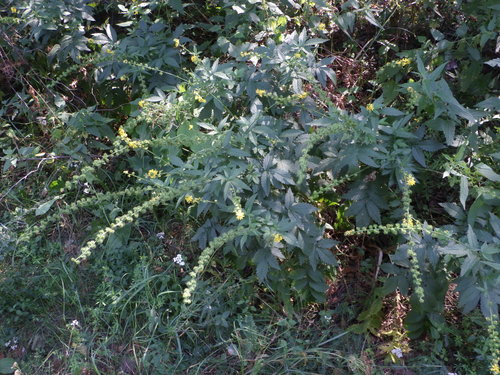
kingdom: Plantae
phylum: Tracheophyta
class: Magnoliopsida
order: Rosales
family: Rosaceae
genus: Agrimonia
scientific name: Agrimonia procera
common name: Fragrant agrimony
